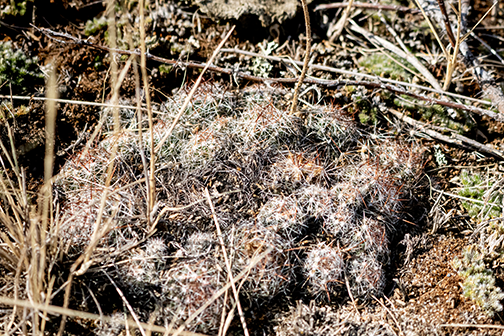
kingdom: Plantae
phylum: Tracheophyta
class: Magnoliopsida
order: Caryophyllales
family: Cactaceae
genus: Pelecyphora
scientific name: Pelecyphora vivipara
